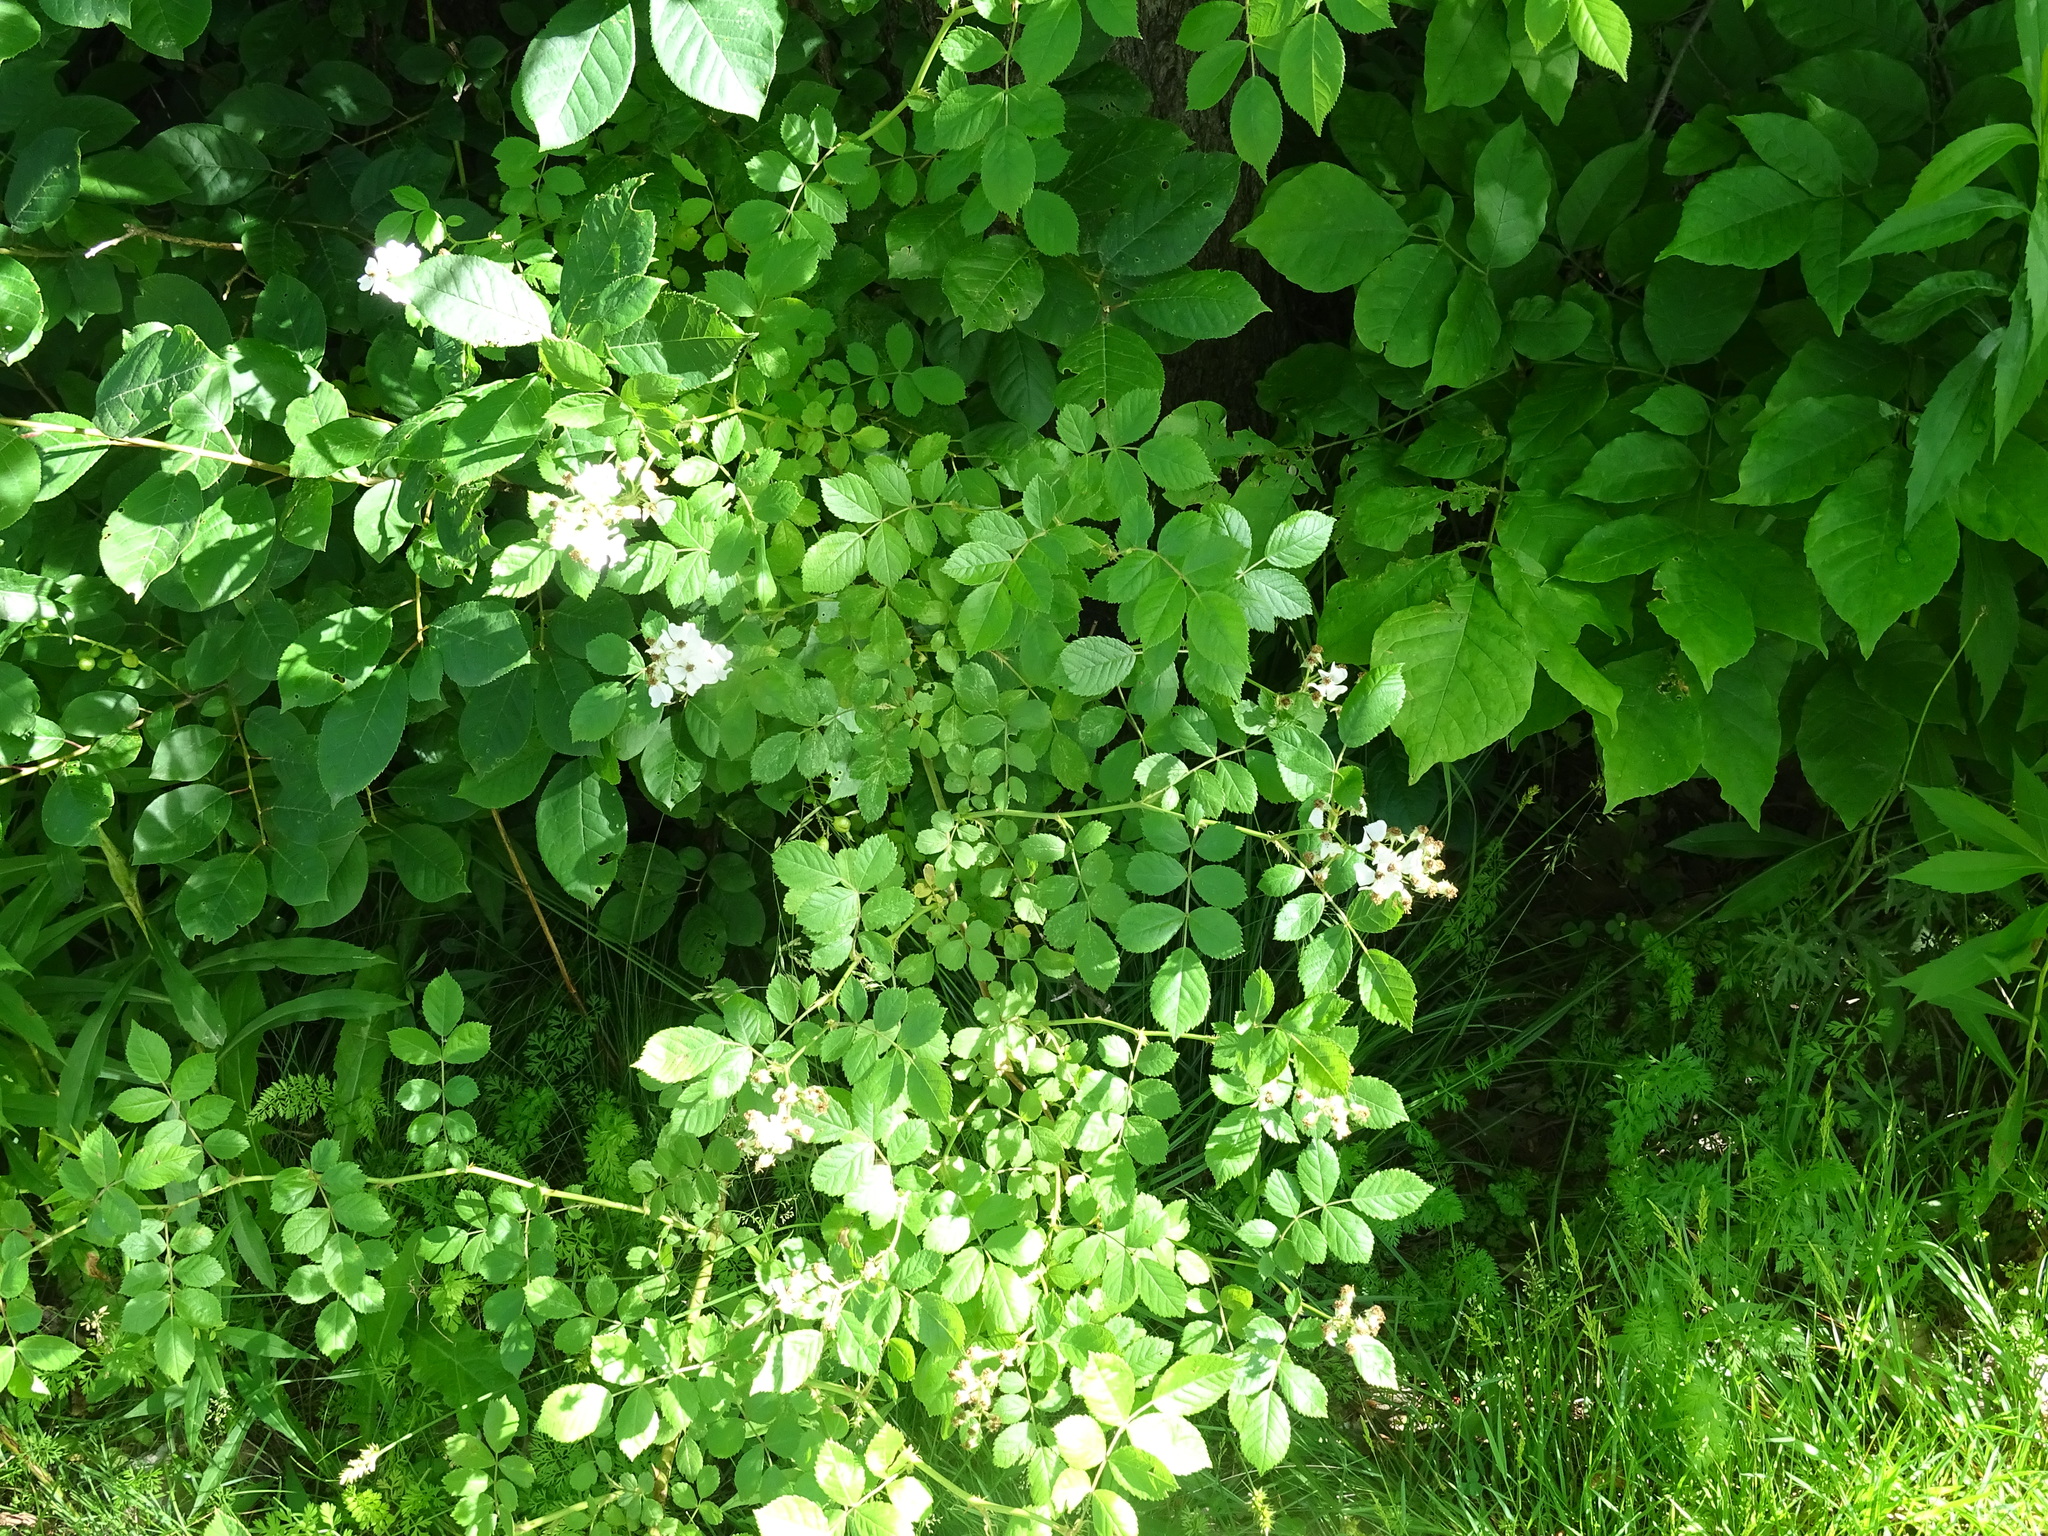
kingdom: Plantae
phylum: Tracheophyta
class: Magnoliopsida
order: Rosales
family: Rosaceae
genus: Rosa
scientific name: Rosa multiflora
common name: Multiflora rose
